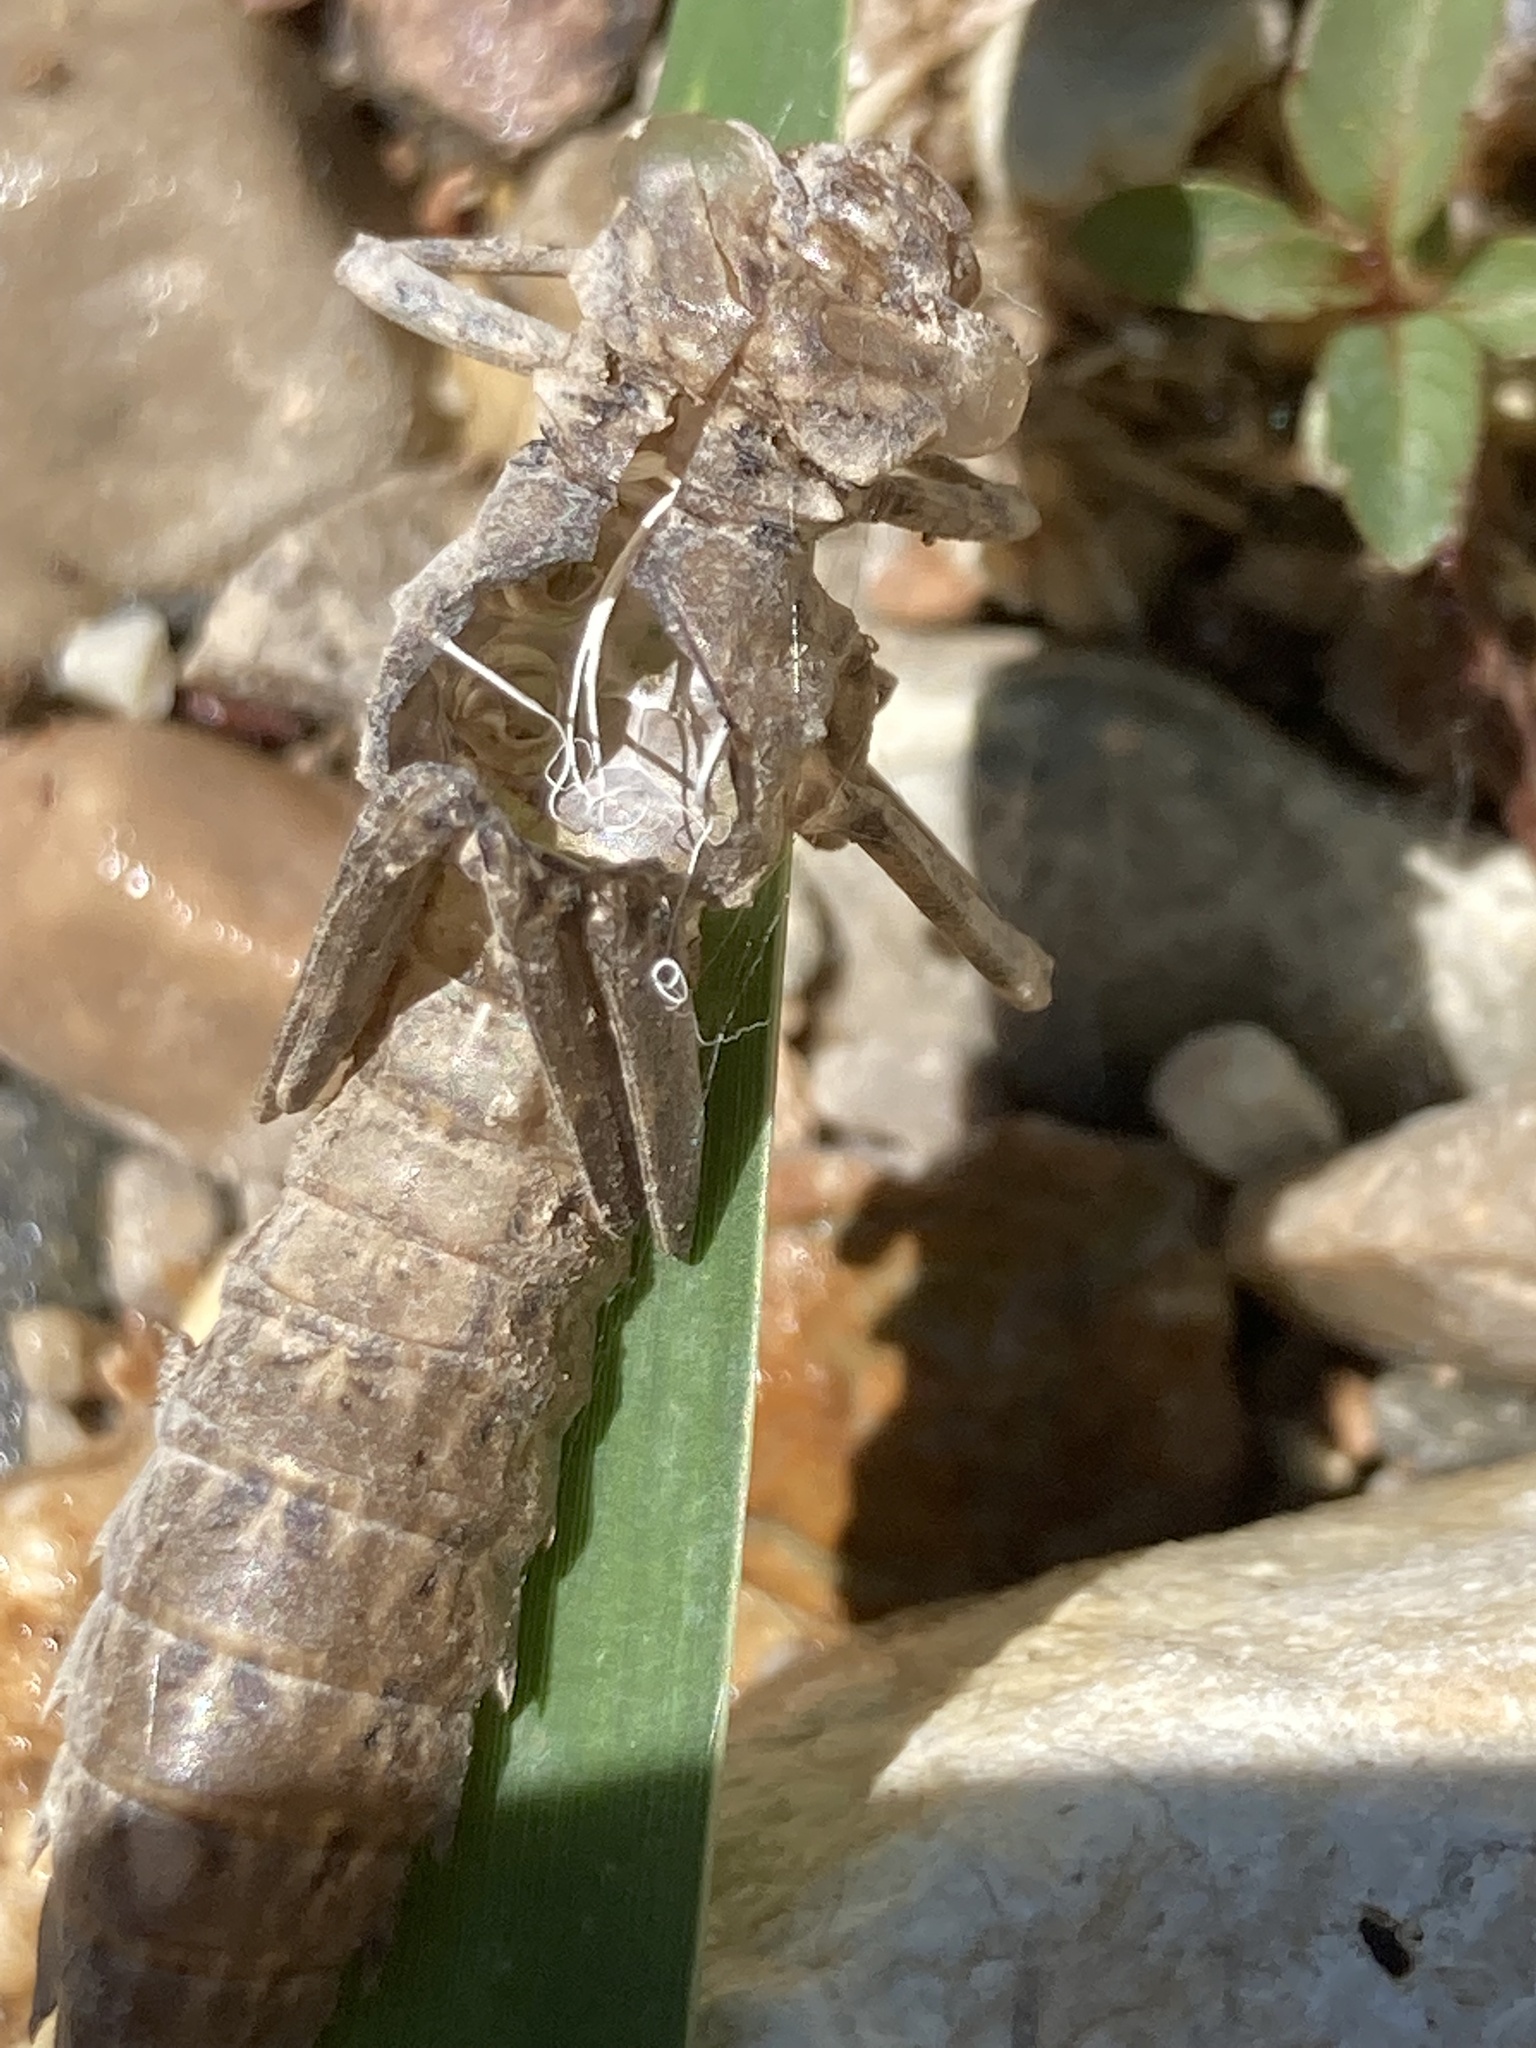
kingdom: Animalia
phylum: Arthropoda
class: Insecta
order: Odonata
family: Aeshnidae
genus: Boyeria
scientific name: Boyeria irene
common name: Western spectre
